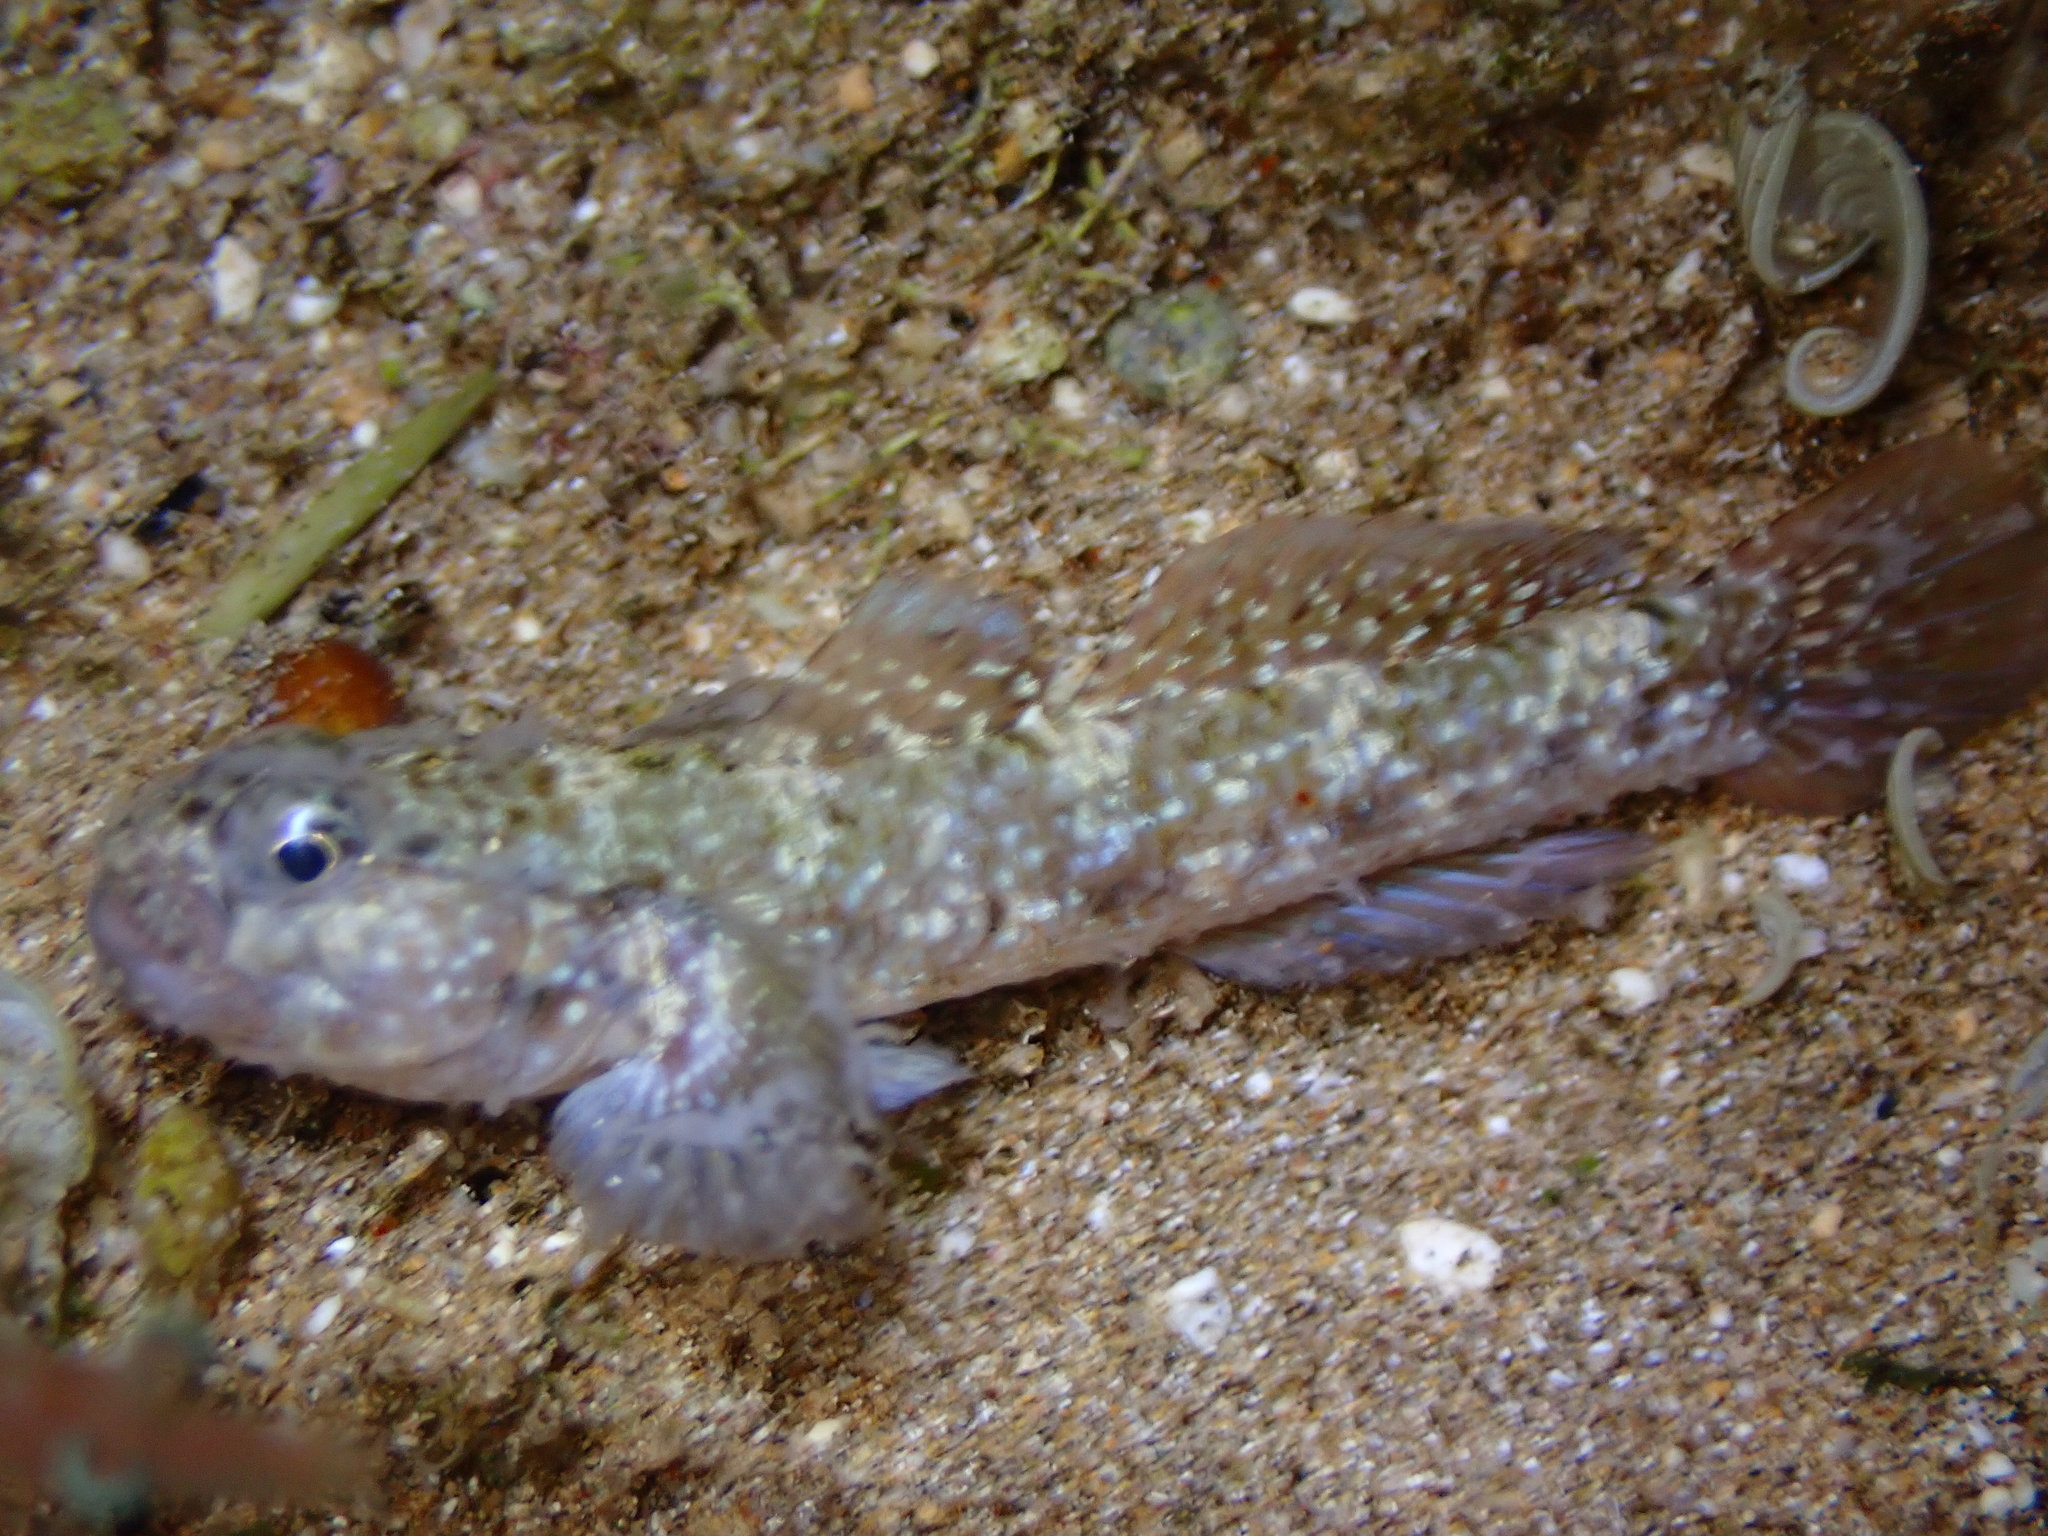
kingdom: Animalia
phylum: Chordata
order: Perciformes
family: Gobiidae
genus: Bathygobius
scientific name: Bathygobius cocosensis
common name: Cocos frillgoby
